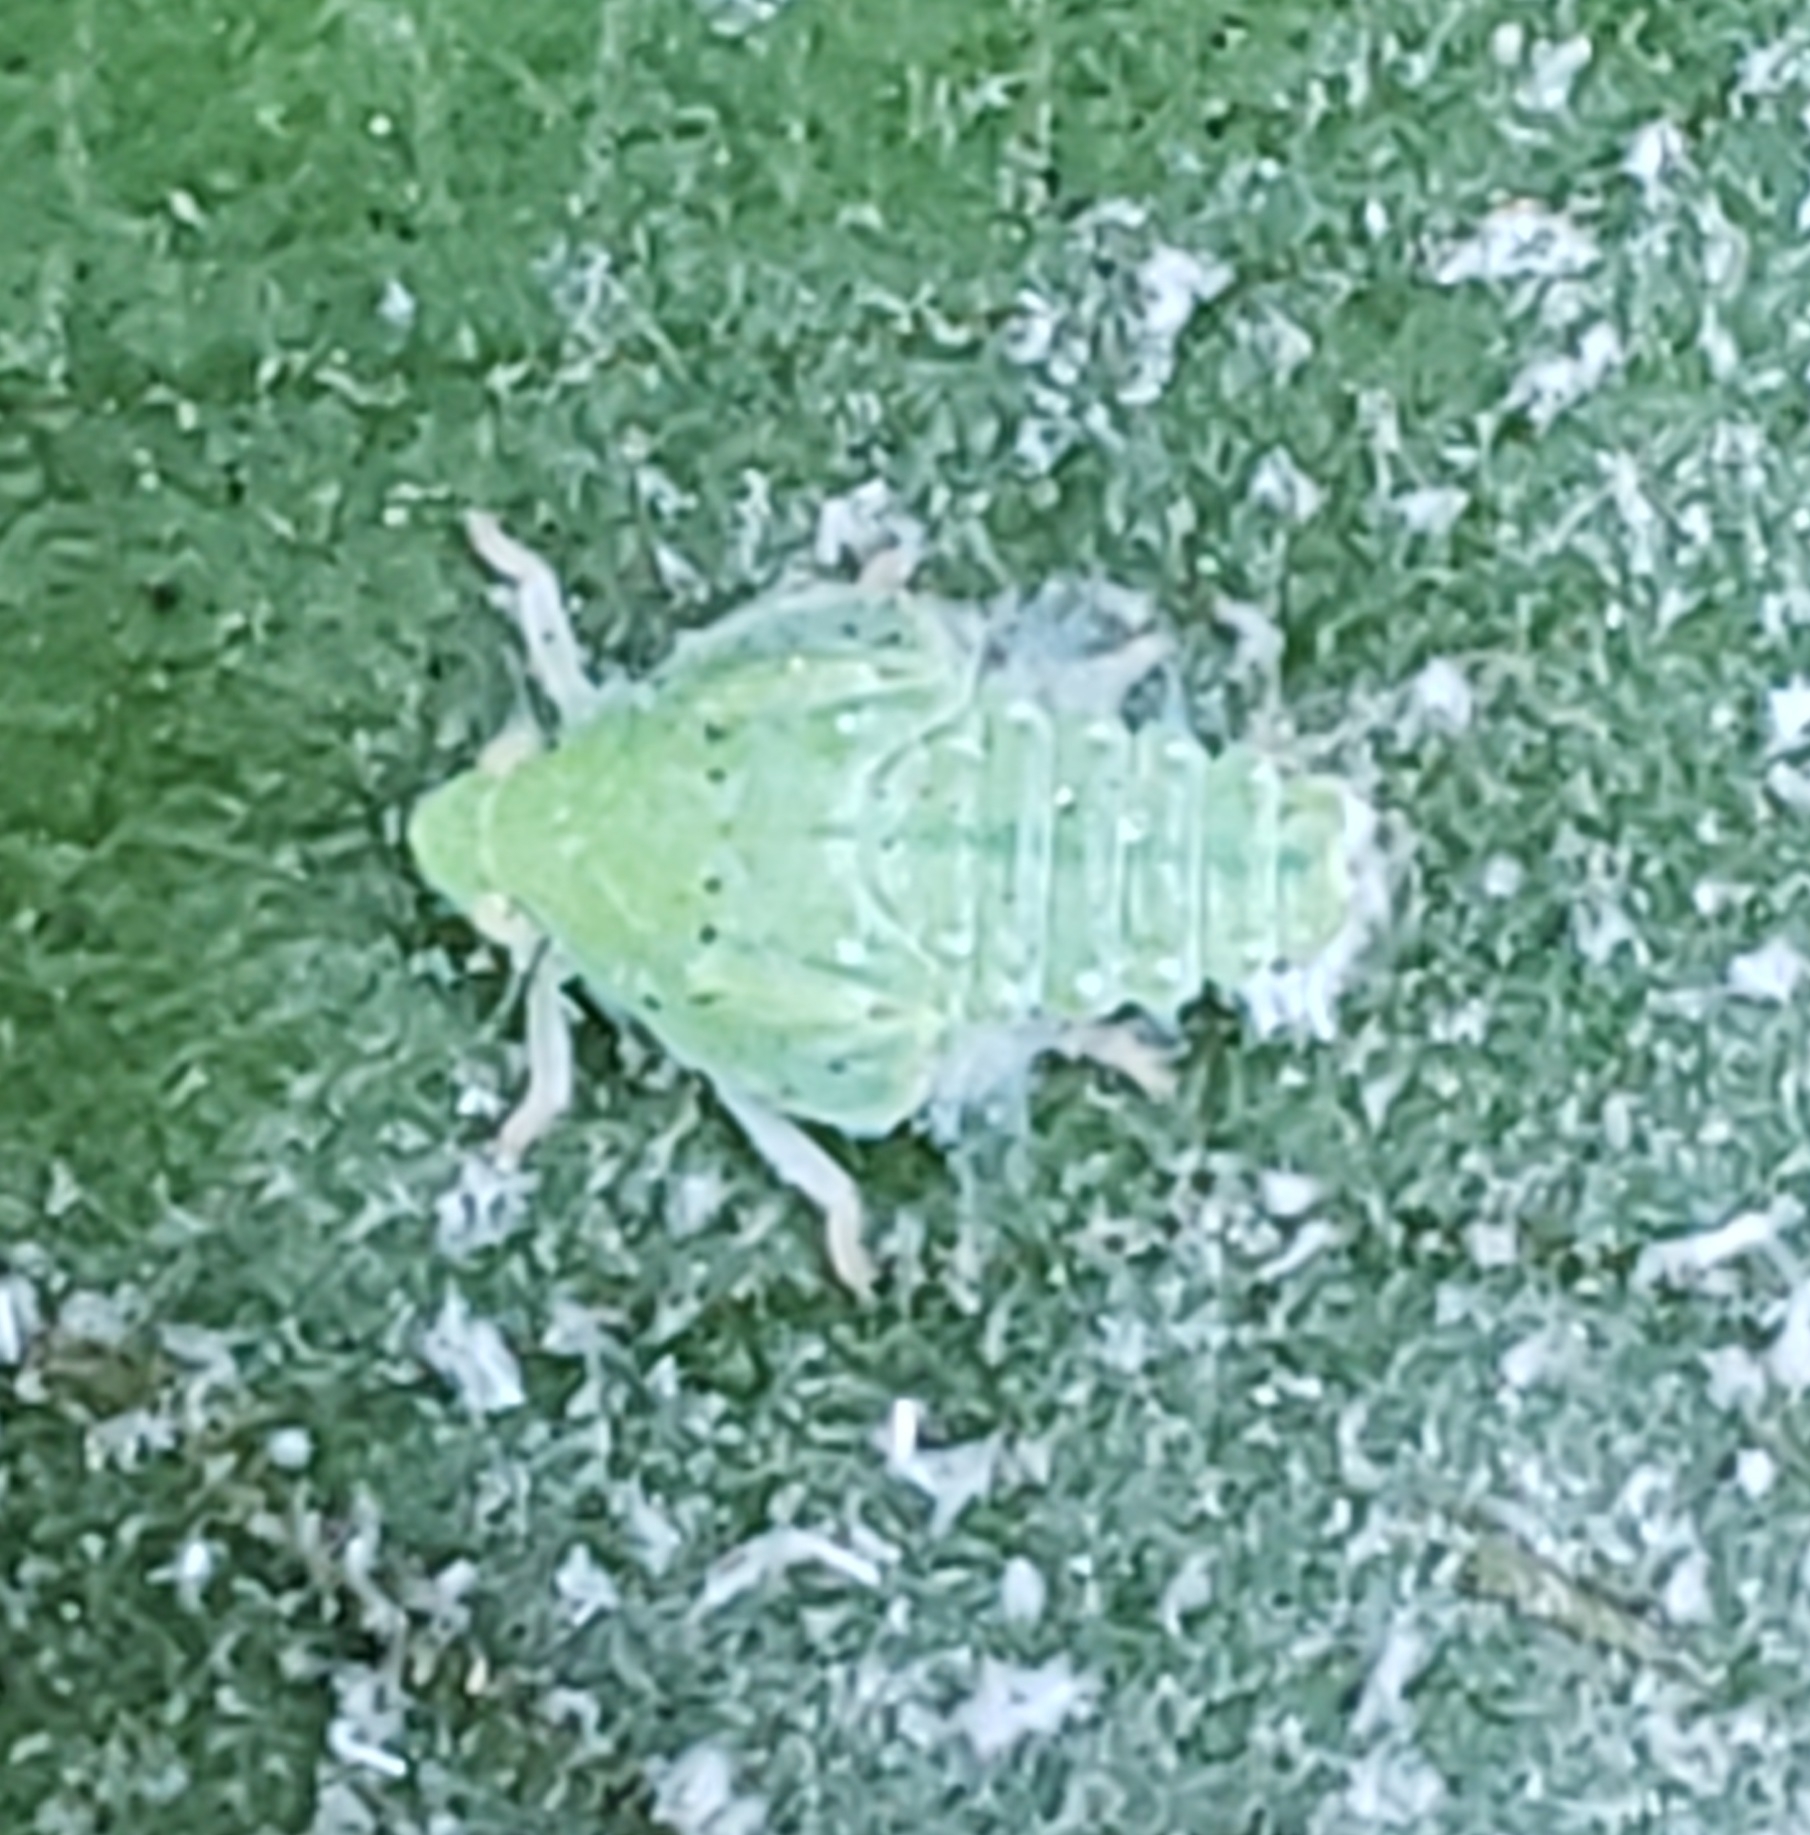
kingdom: Animalia
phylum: Arthropoda
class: Insecta
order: Hemiptera
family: Flatidae
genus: Siphanta
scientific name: Siphanta acuta
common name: Torpedo bug
